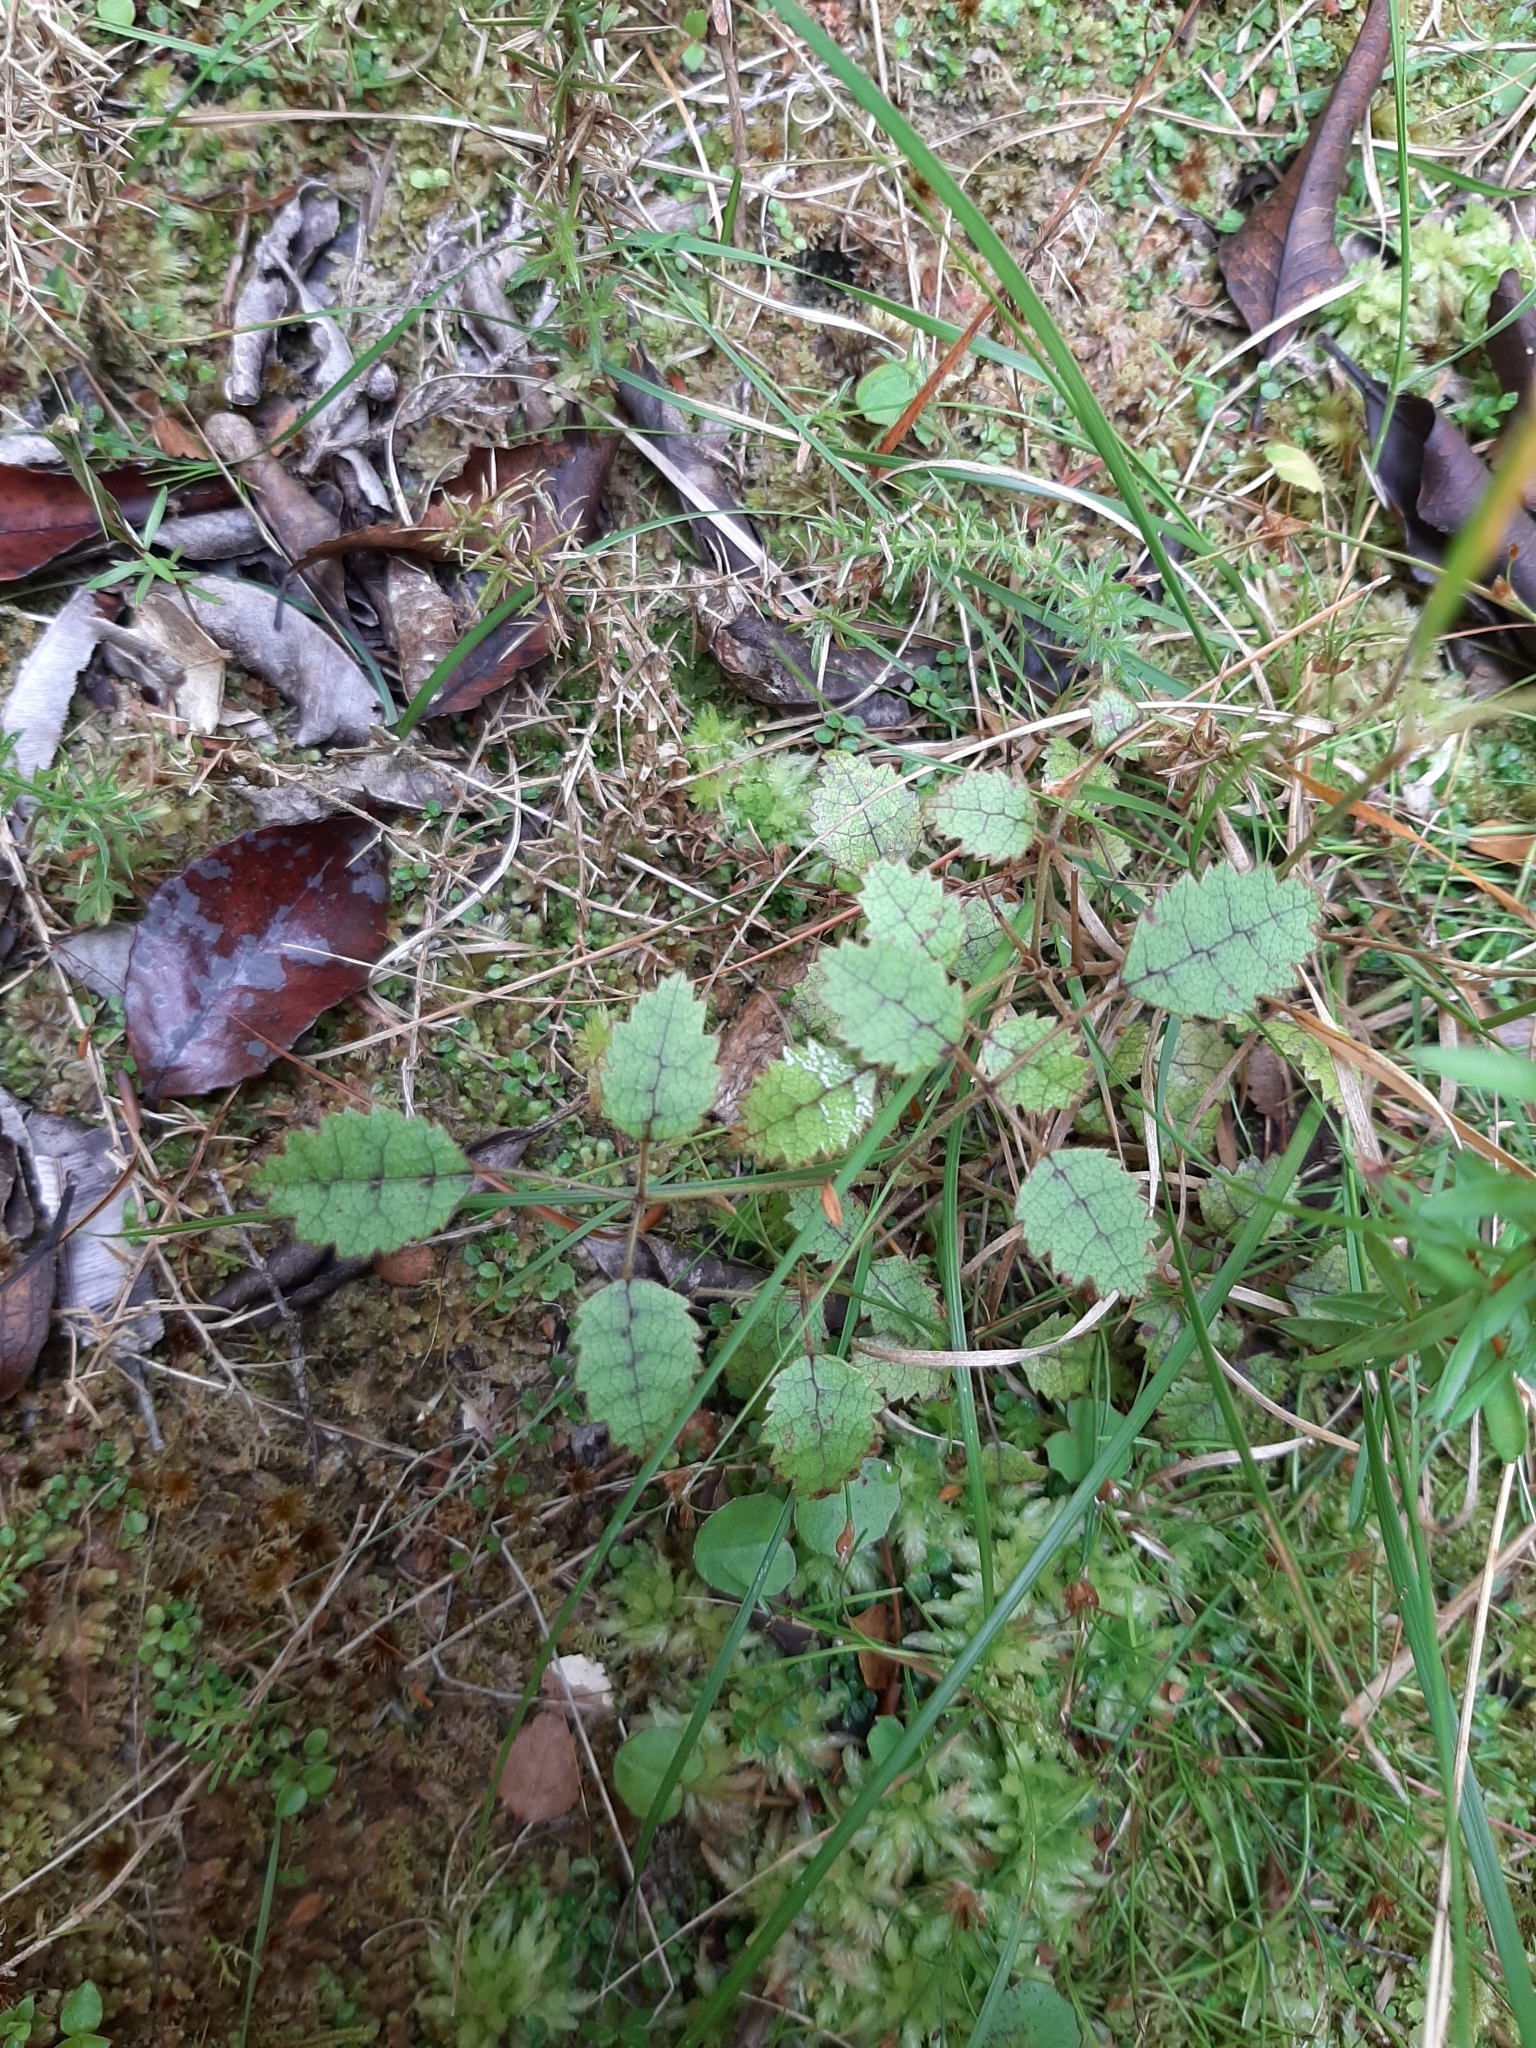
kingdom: Plantae
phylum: Tracheophyta
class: Magnoliopsida
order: Rosales
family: Rosaceae
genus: Rubus
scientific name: Rubus australis
